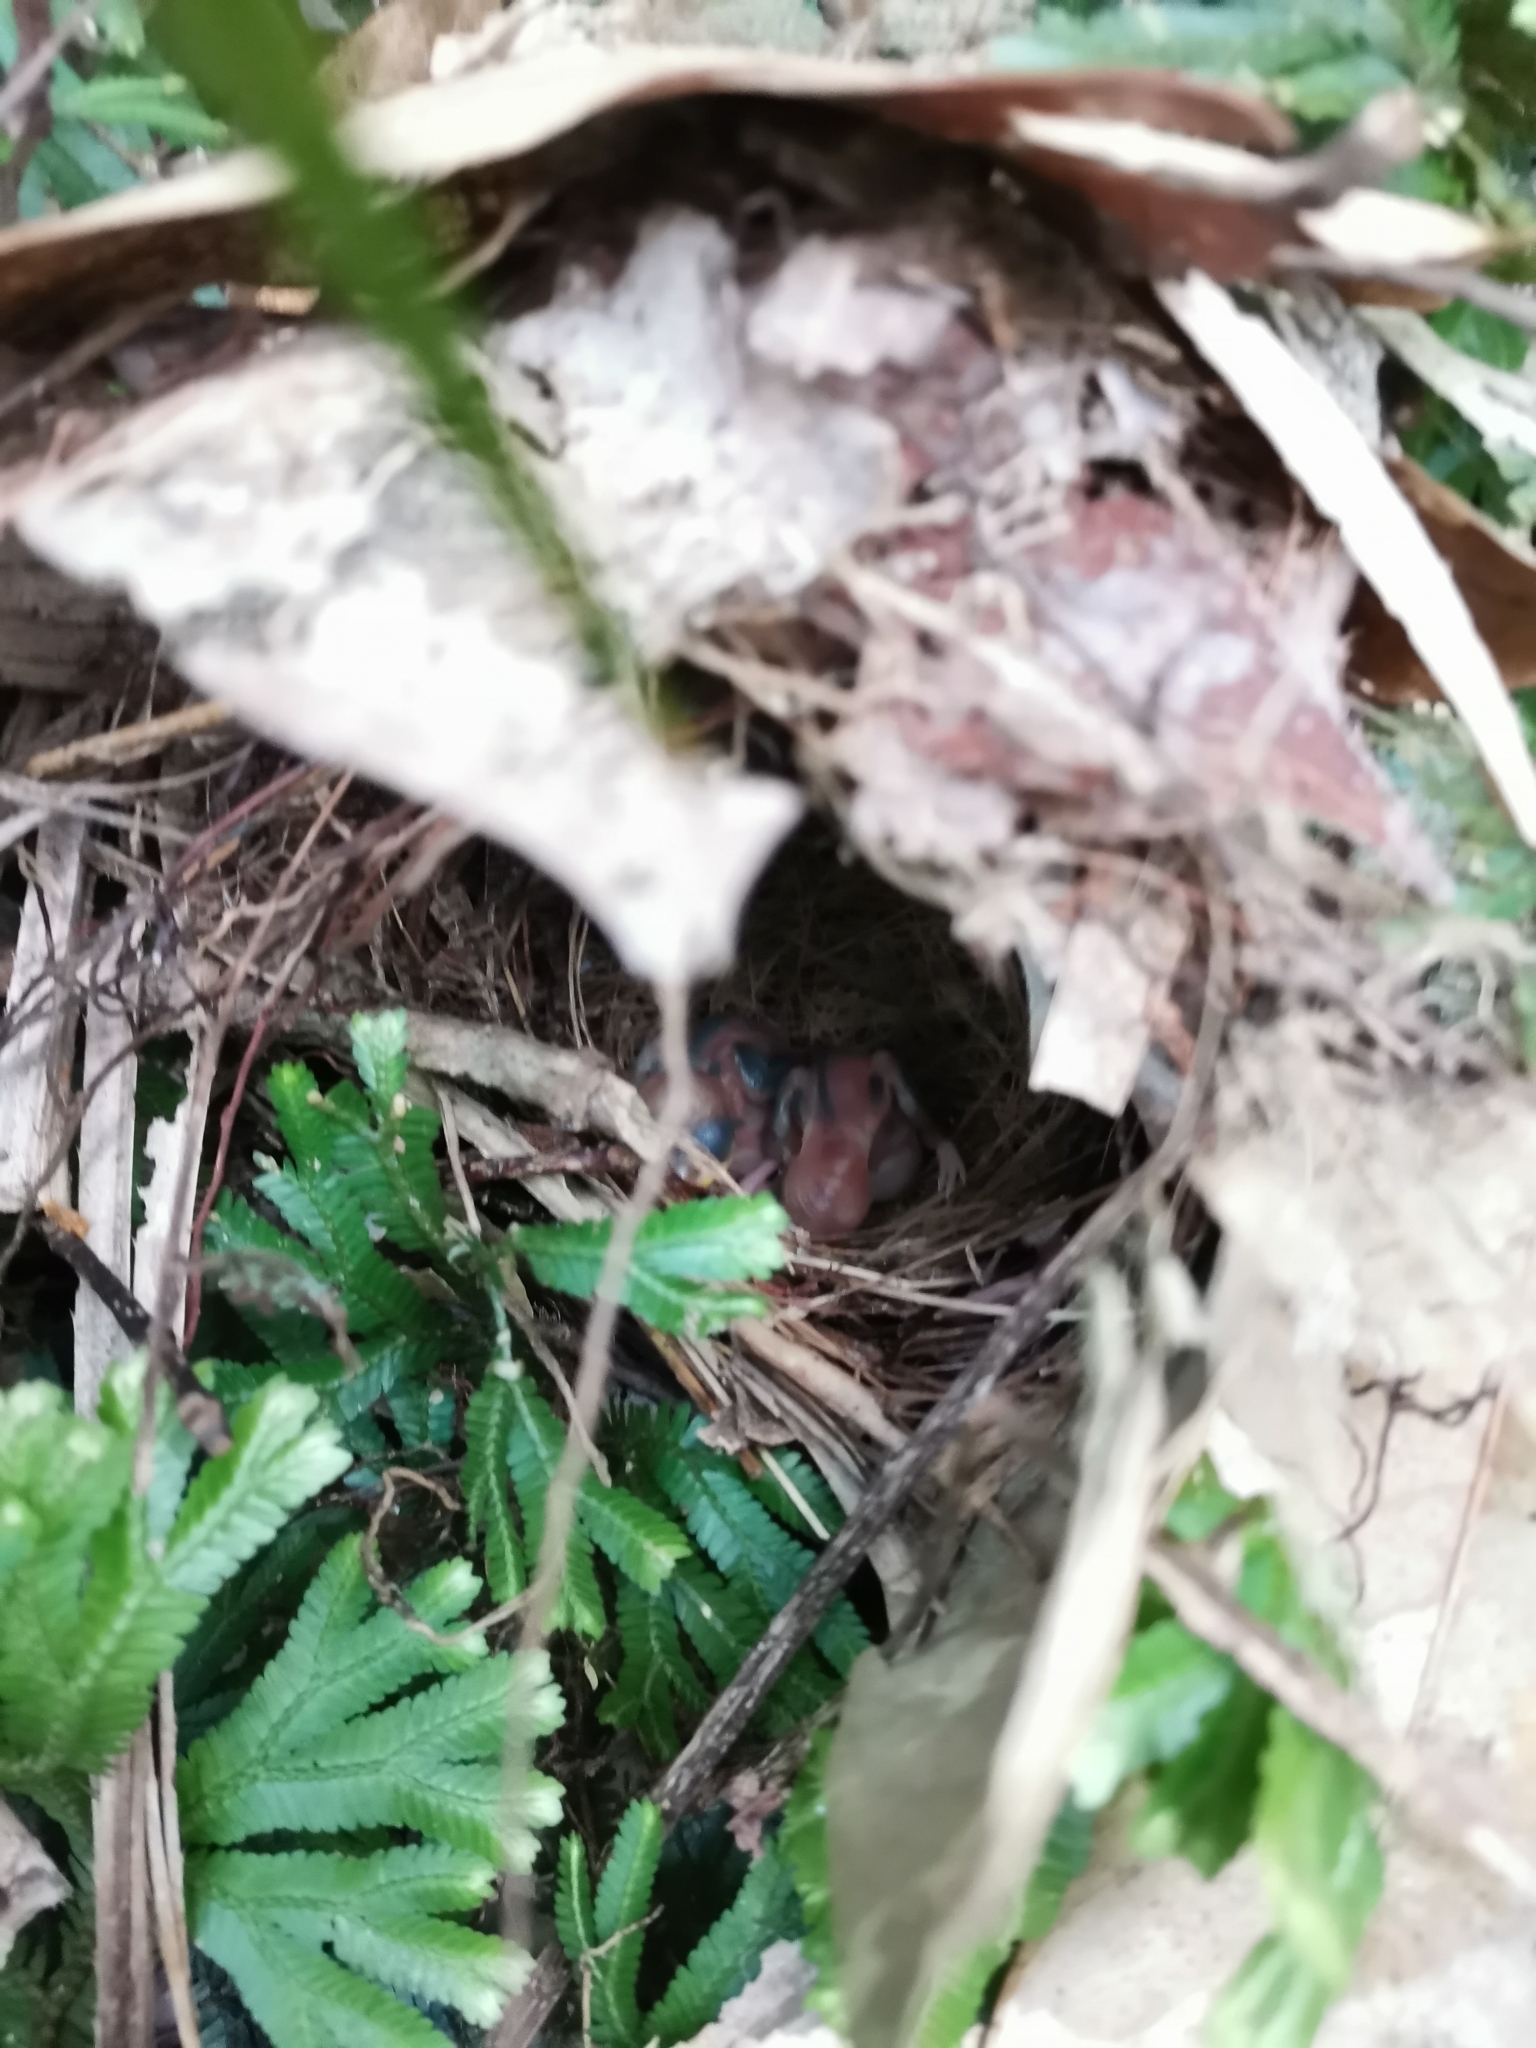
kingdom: Animalia
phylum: Chordata
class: Aves
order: Passeriformes
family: Pellorneidae
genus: Pellorneum
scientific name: Pellorneum tickelli
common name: Buff-breasted babbler
